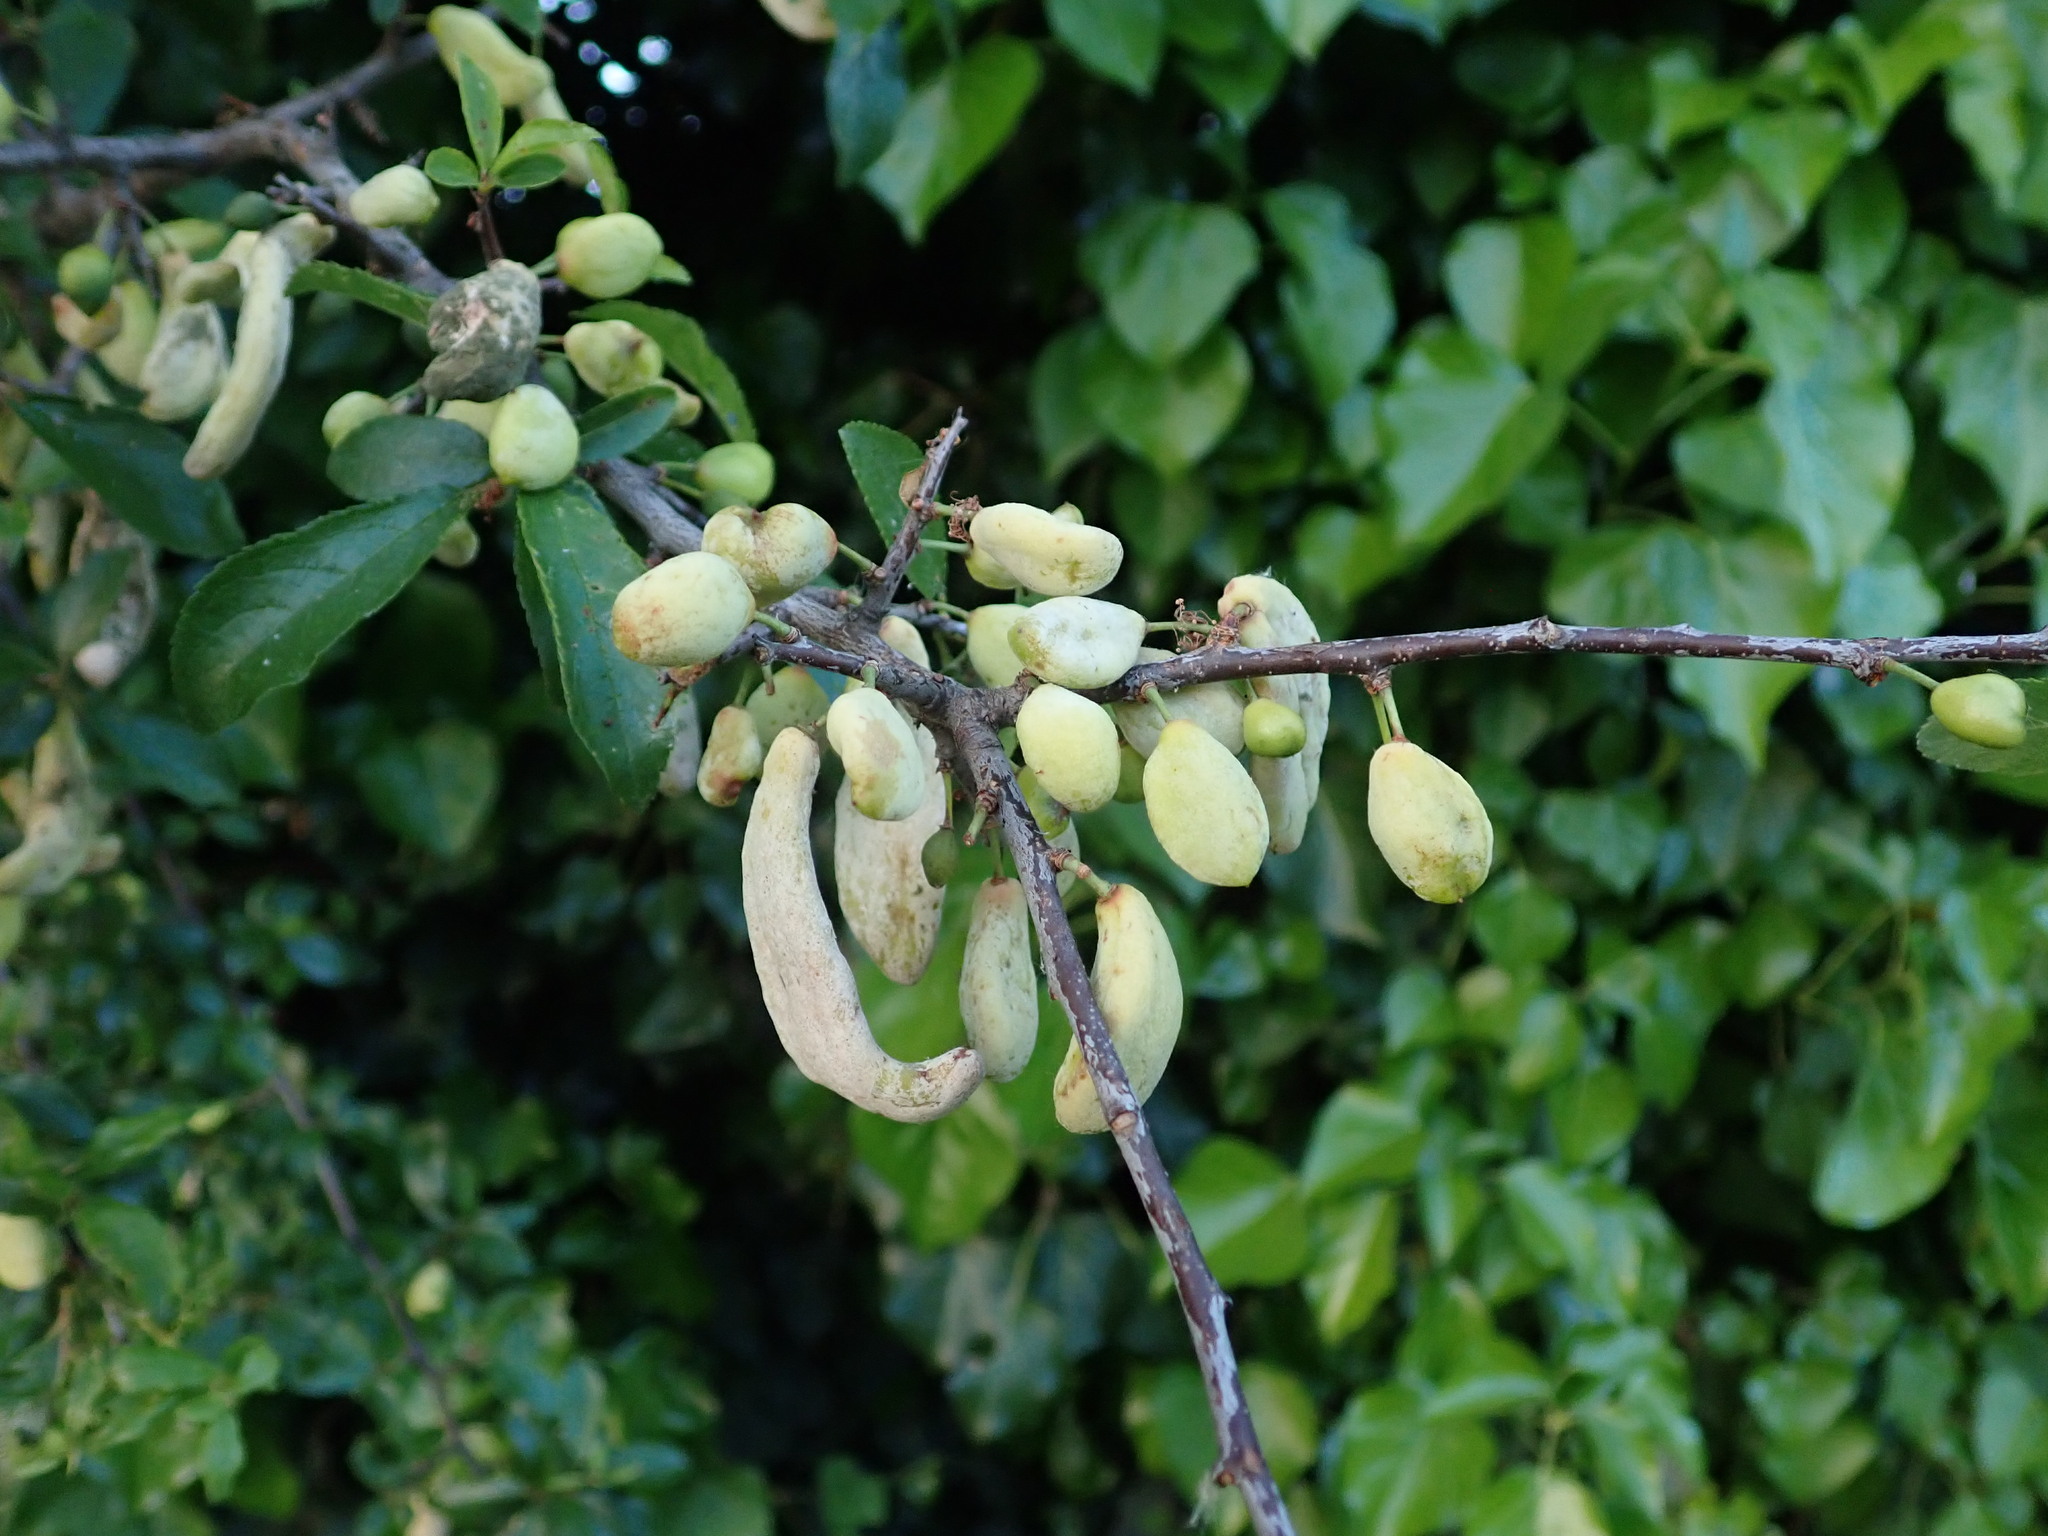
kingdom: Fungi
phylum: Ascomycota
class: Taphrinomycetes
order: Taphrinales
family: Taphrinaceae
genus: Taphrina
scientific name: Taphrina pruni
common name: Pocket plum
